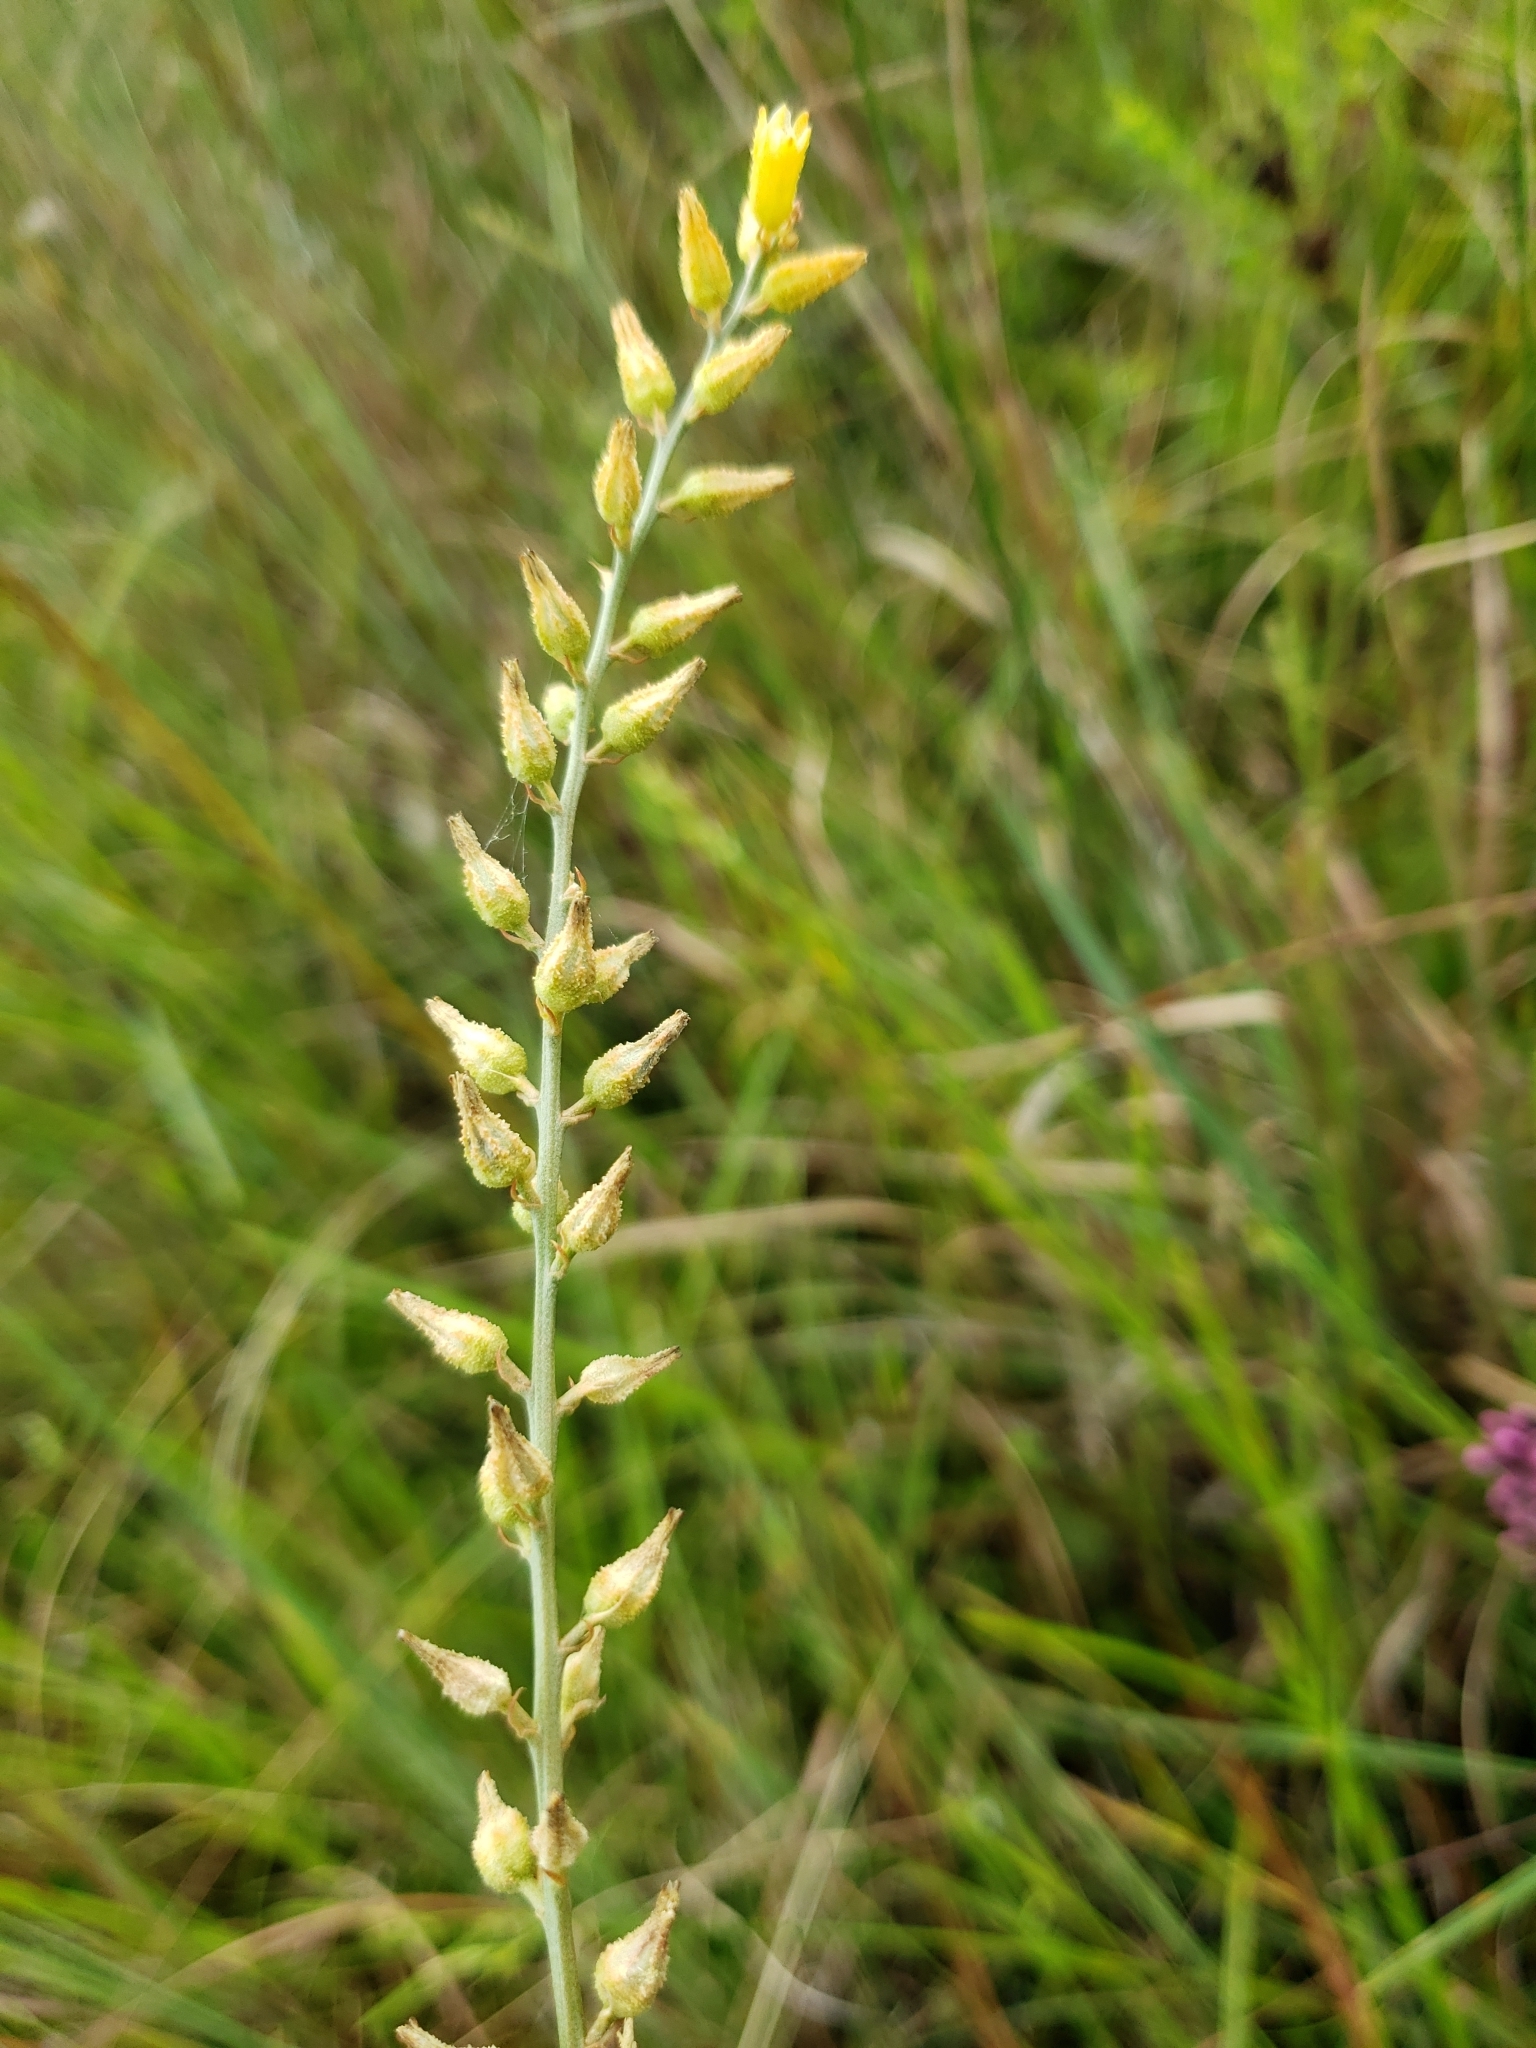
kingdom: Plantae
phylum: Tracheophyta
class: Liliopsida
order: Dioscoreales
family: Nartheciaceae
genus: Aletris
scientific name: Aletris lutea
